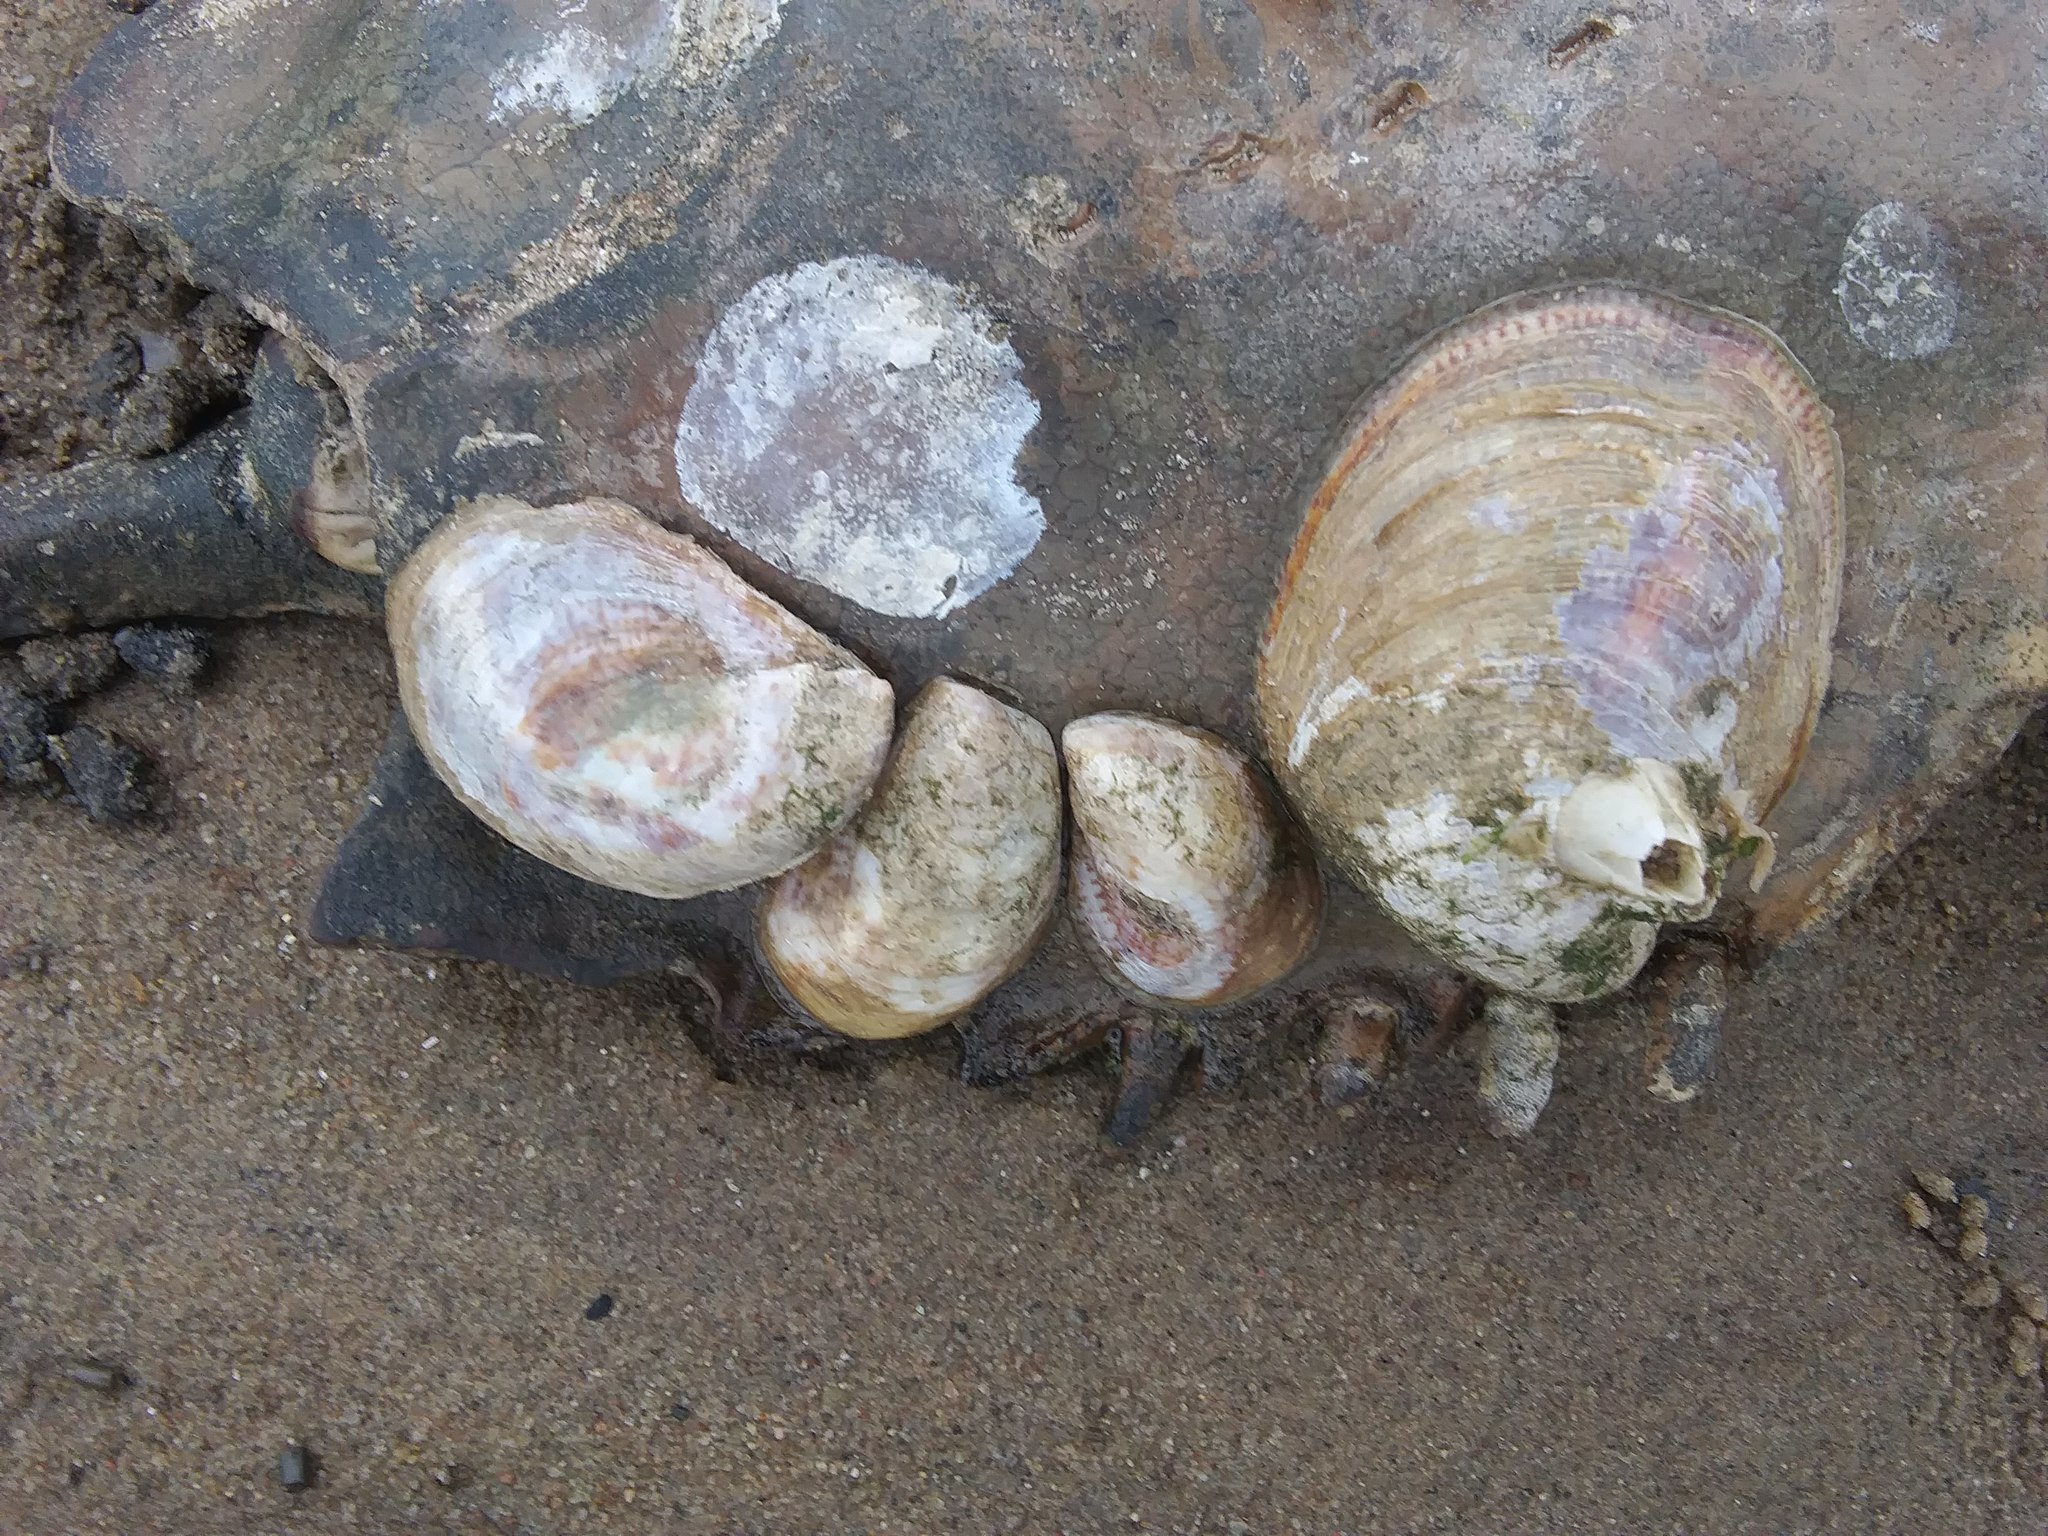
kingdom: Animalia
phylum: Mollusca
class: Gastropoda
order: Littorinimorpha
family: Calyptraeidae
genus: Crepidula
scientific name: Crepidula fornicata
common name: Slipper limpet
